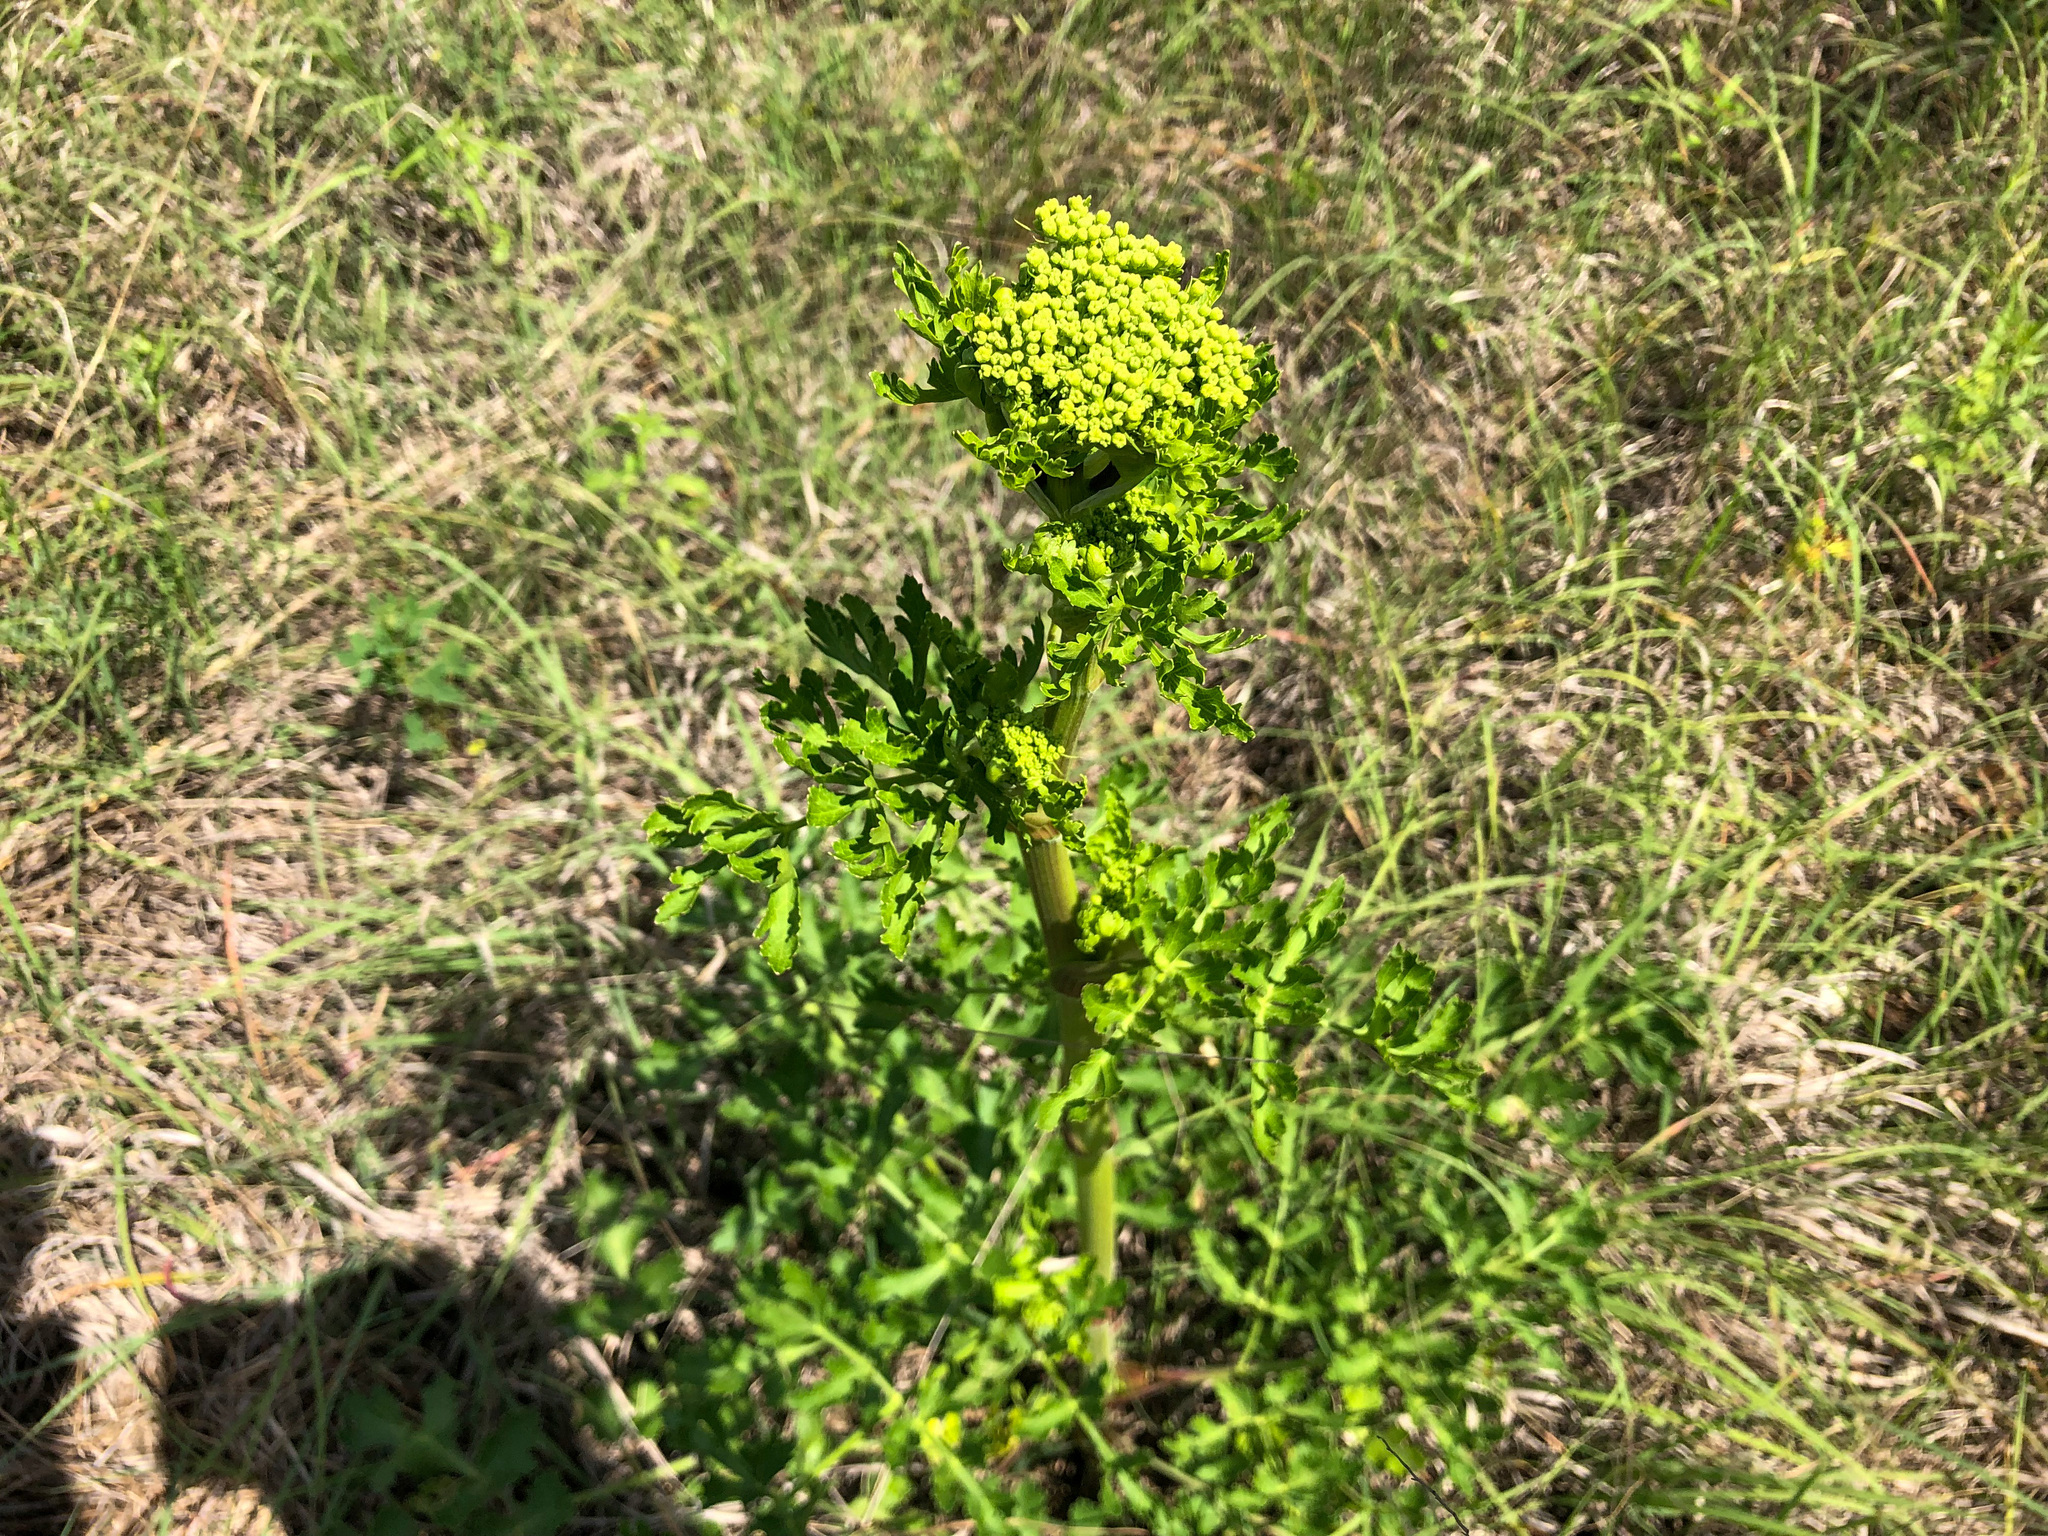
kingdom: Plantae
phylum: Tracheophyta
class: Magnoliopsida
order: Apiales
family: Apiaceae
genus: Polytaenia
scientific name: Polytaenia texana
